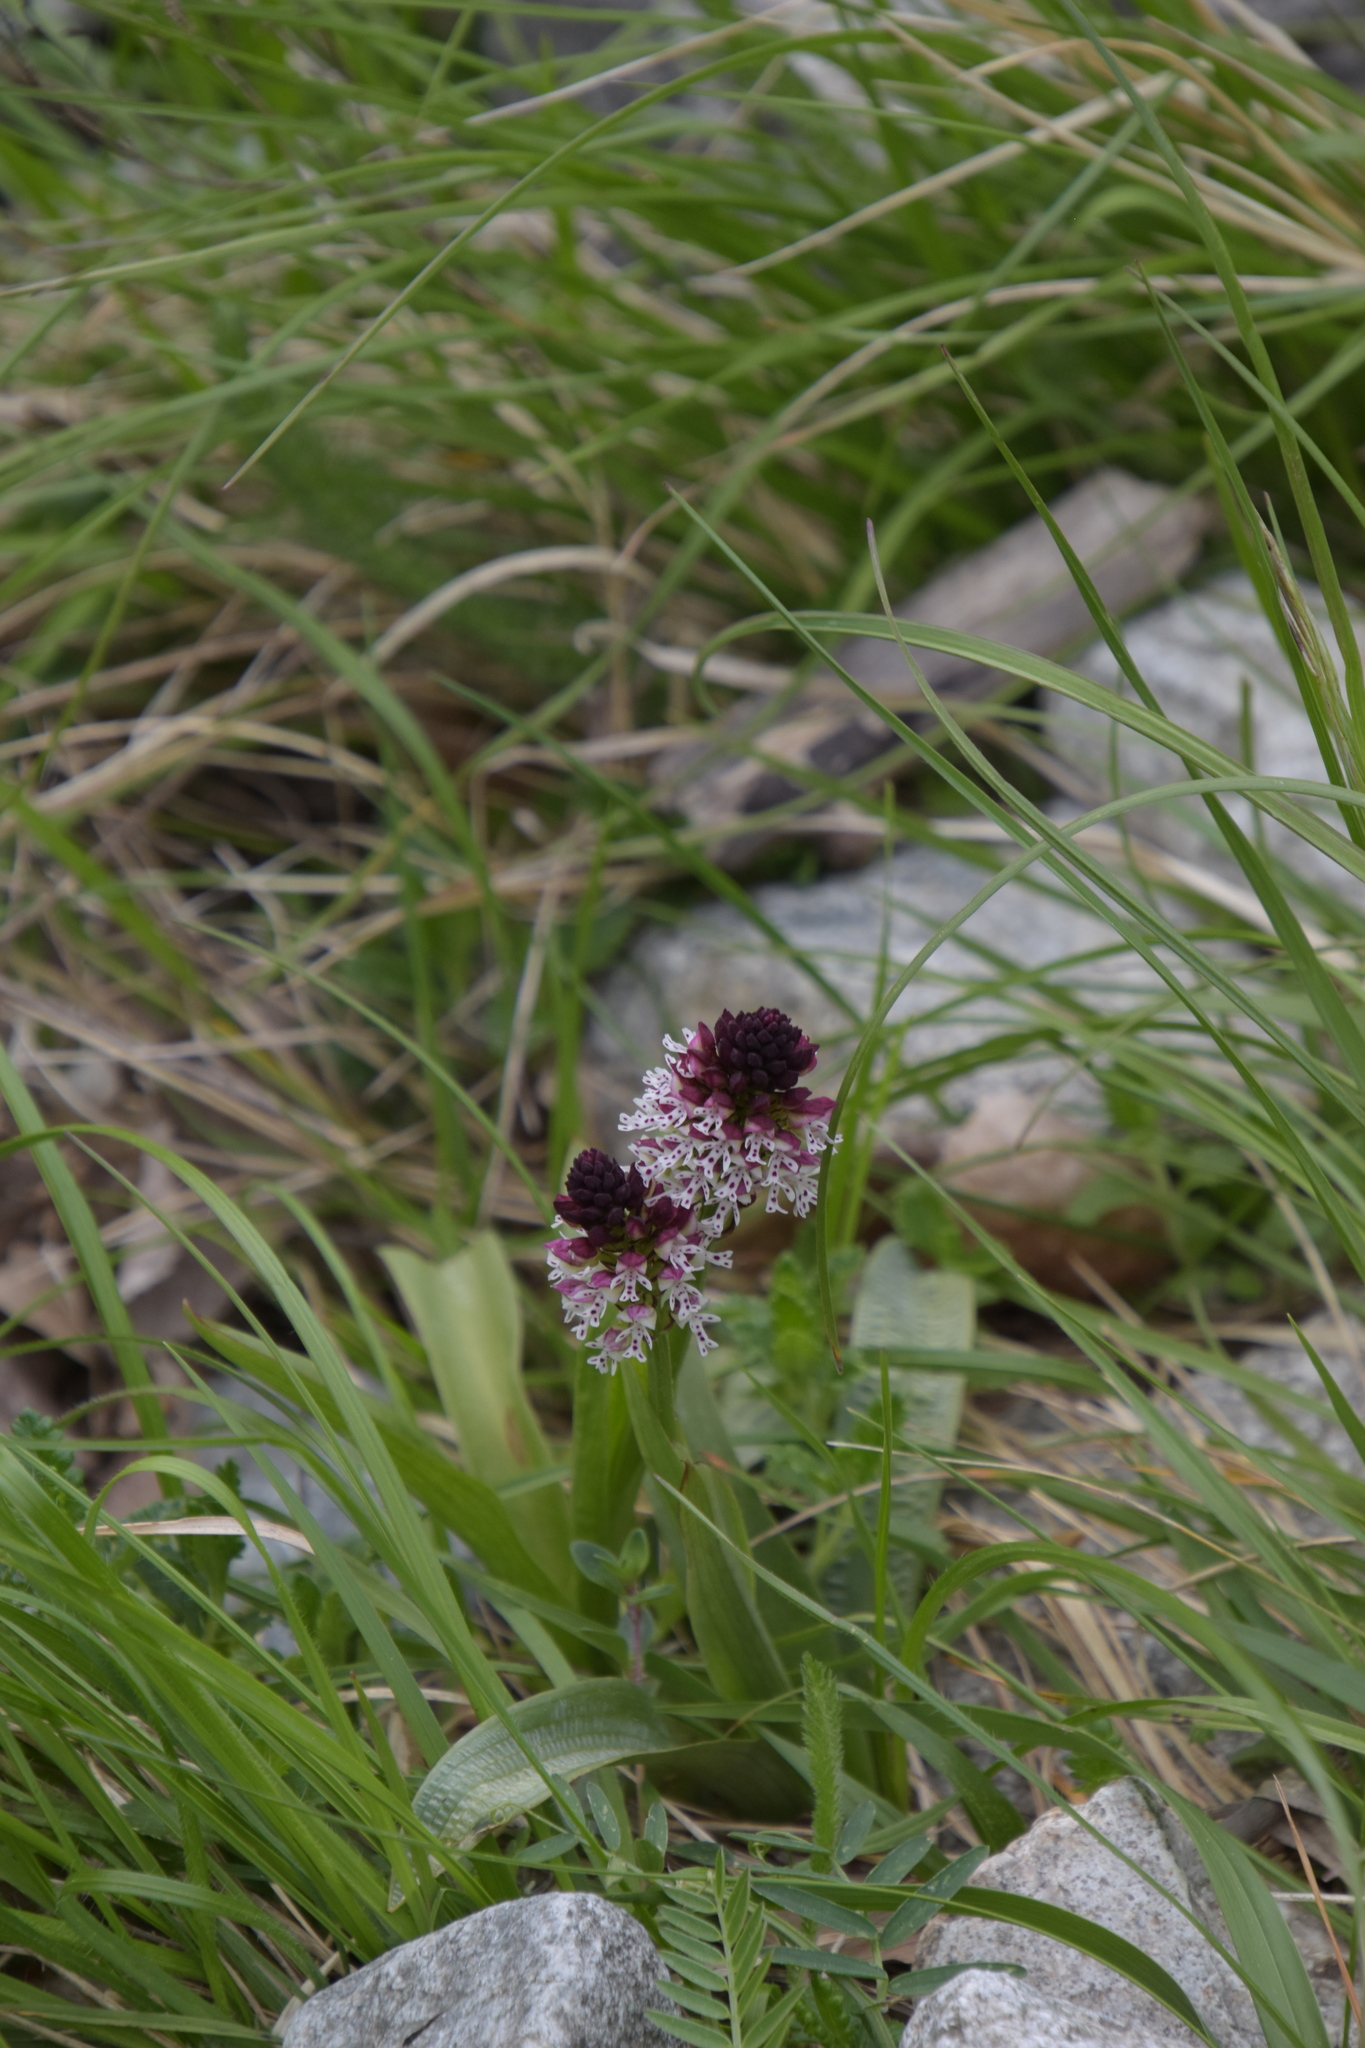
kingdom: Plantae
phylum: Tracheophyta
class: Liliopsida
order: Asparagales
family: Orchidaceae
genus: Neotinea
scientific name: Neotinea ustulata
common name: Burnt orchid
